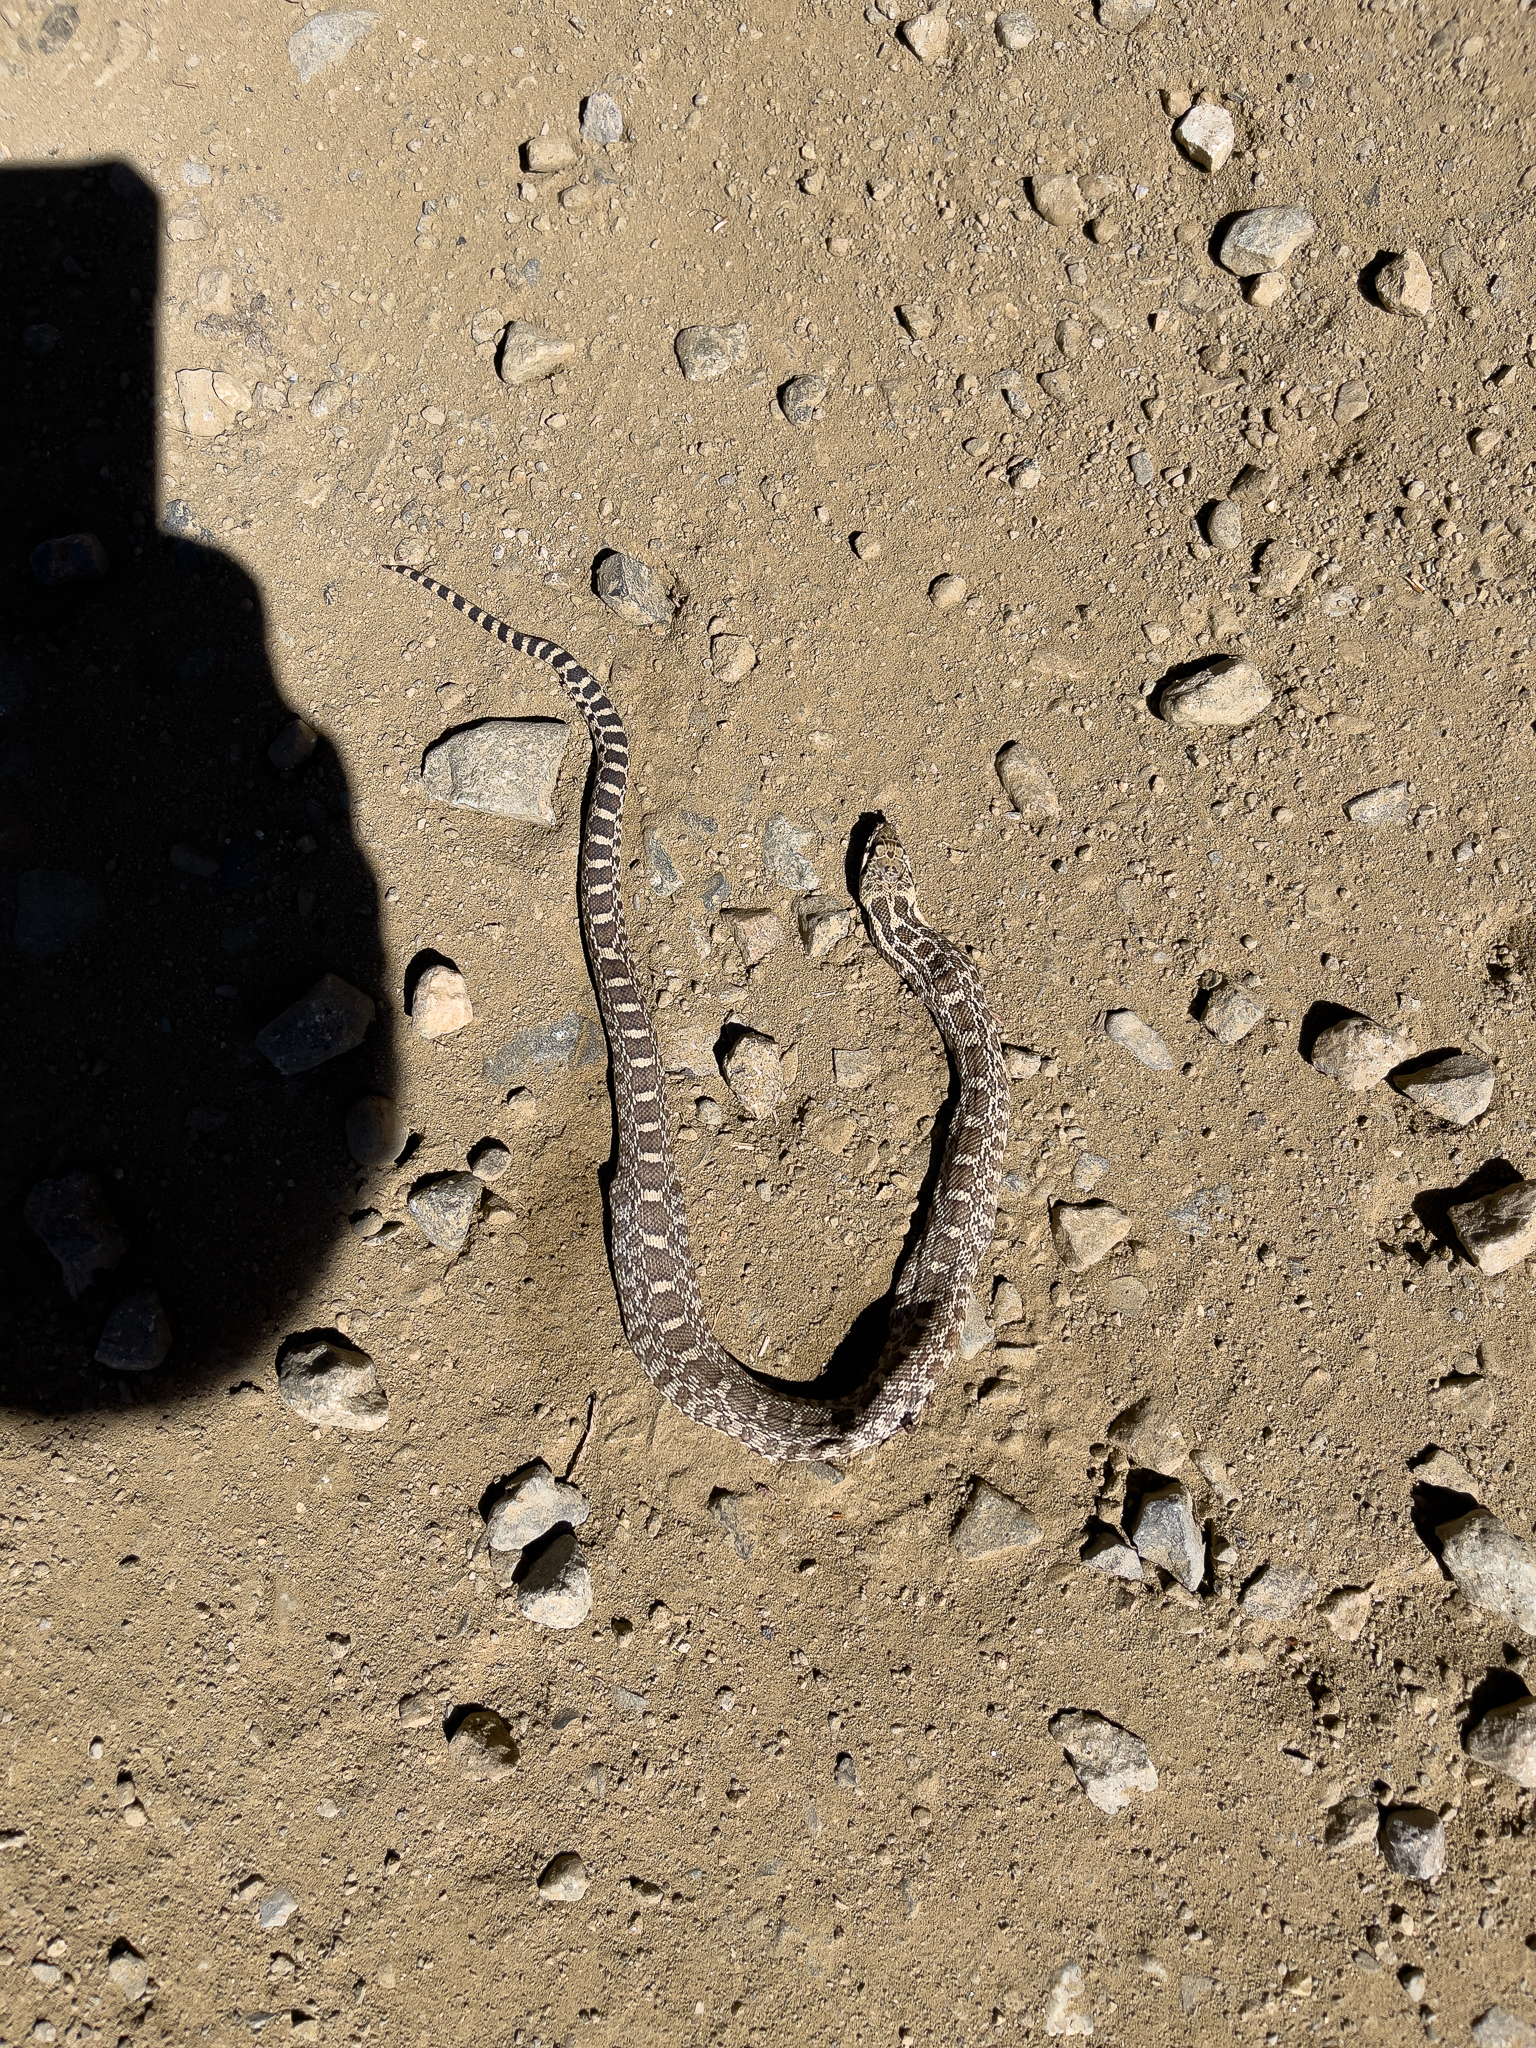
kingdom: Animalia
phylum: Chordata
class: Squamata
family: Colubridae
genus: Pituophis
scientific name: Pituophis catenifer
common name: Gopher snake
